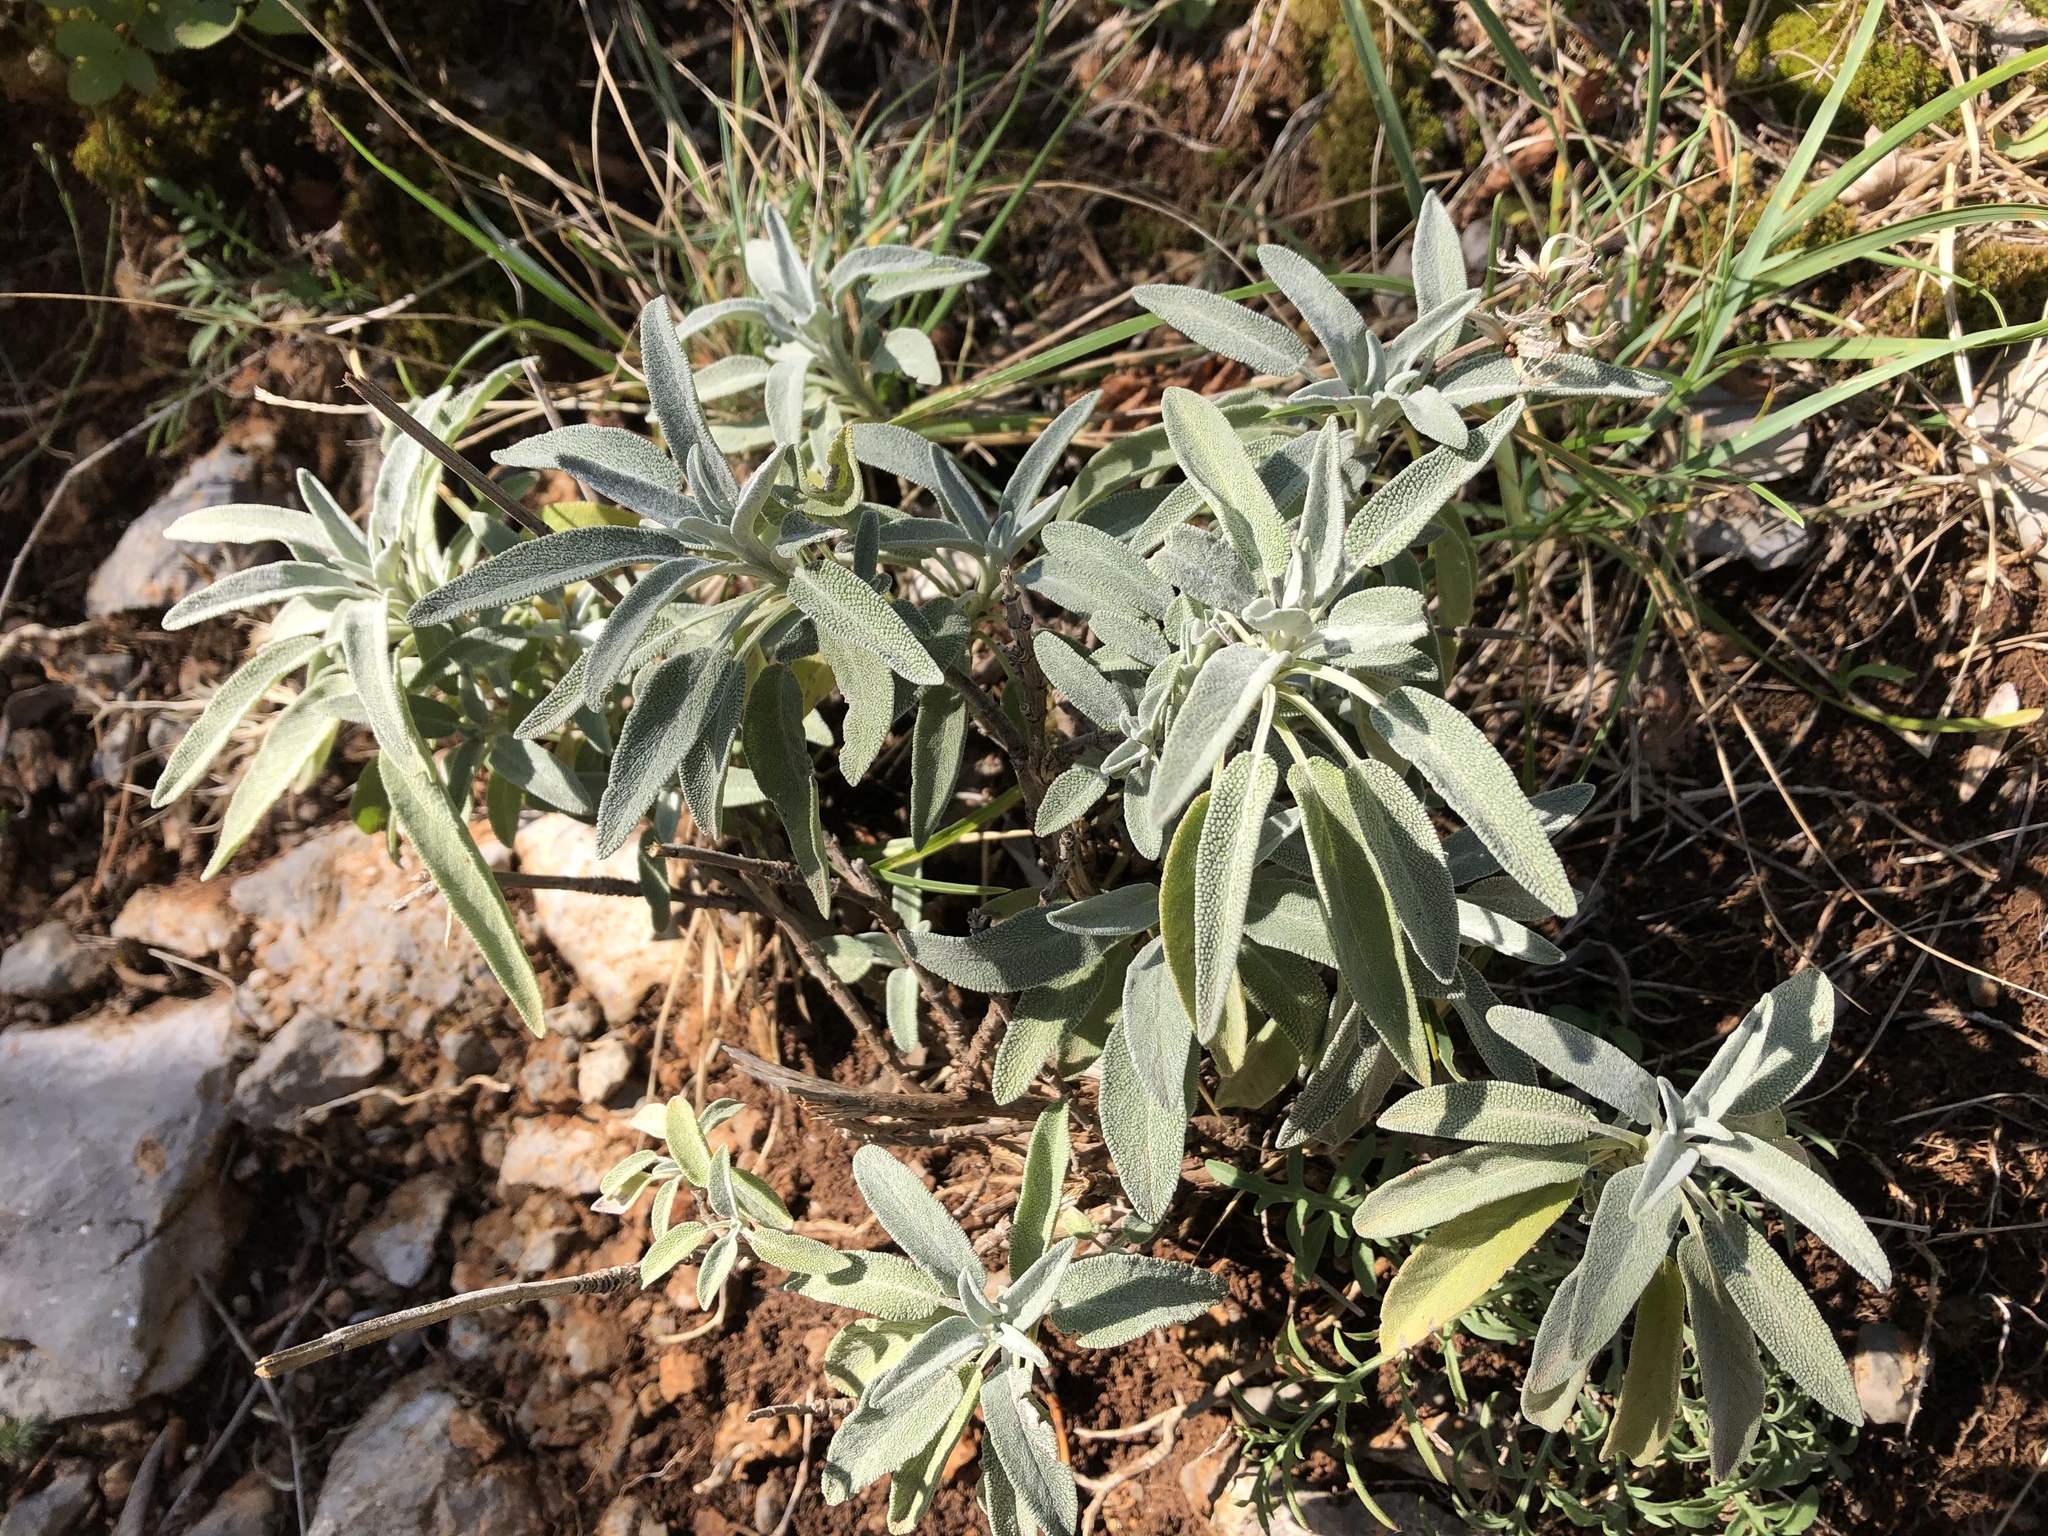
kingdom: Plantae
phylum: Tracheophyta
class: Magnoliopsida
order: Lamiales
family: Lamiaceae
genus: Salvia
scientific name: Salvia officinalis
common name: Sage
